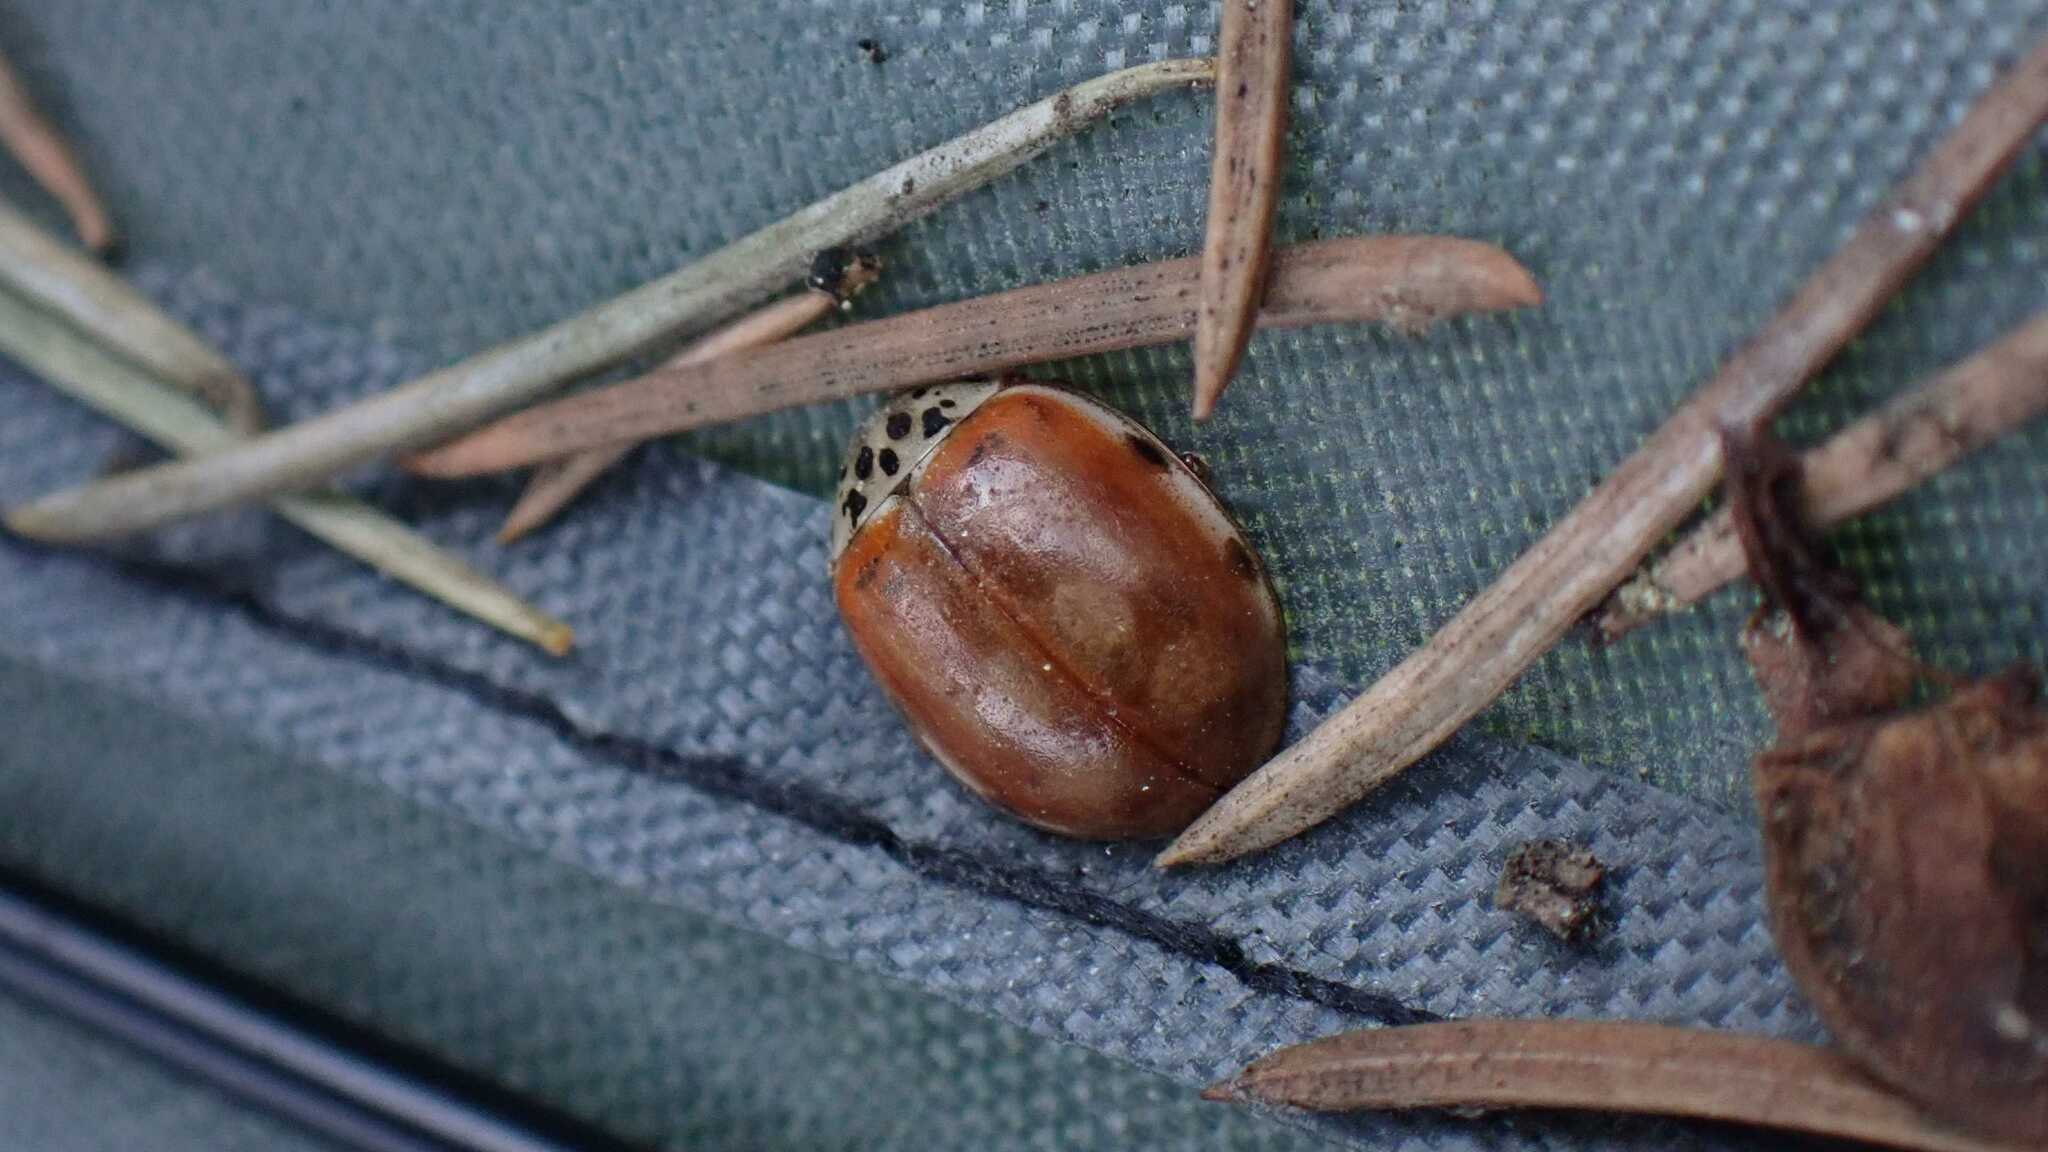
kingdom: Animalia
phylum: Arthropoda
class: Insecta
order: Coleoptera
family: Coccinellidae
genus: Harmonia
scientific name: Harmonia quadripunctata
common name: Cream-streaked ladybird
